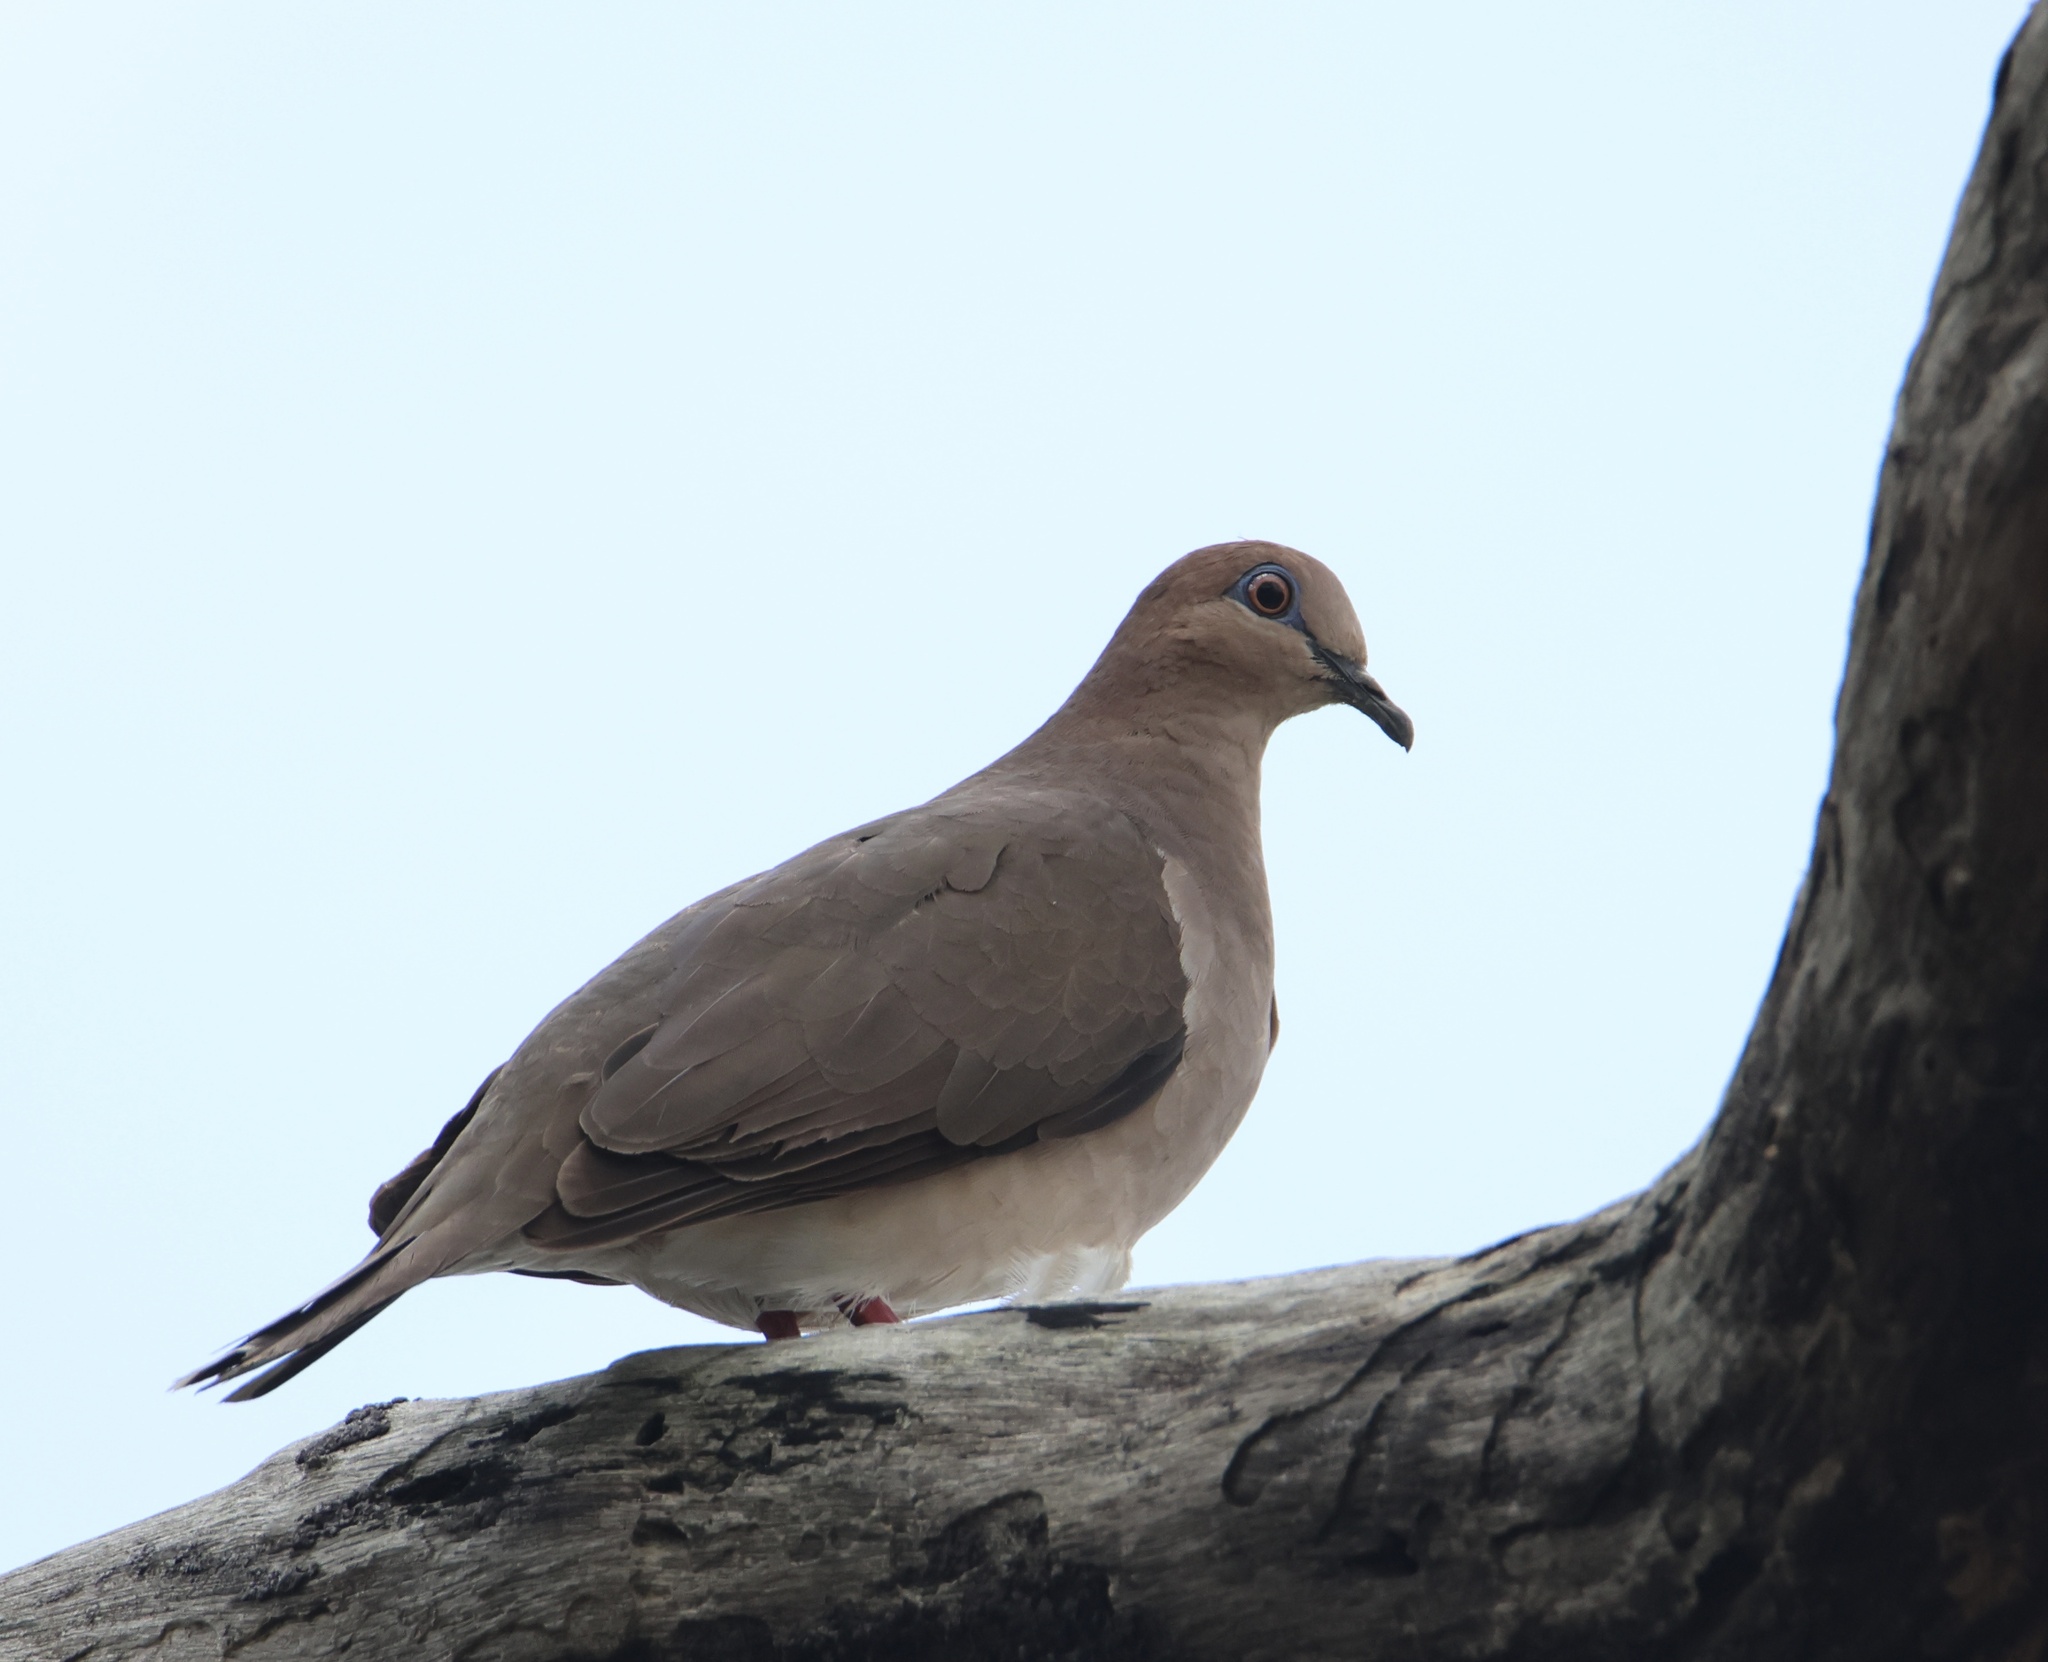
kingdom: Animalia
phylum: Chordata
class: Aves
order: Columbiformes
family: Columbidae
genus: Leptotila
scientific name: Leptotila verreauxi
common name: White-tipped dove
